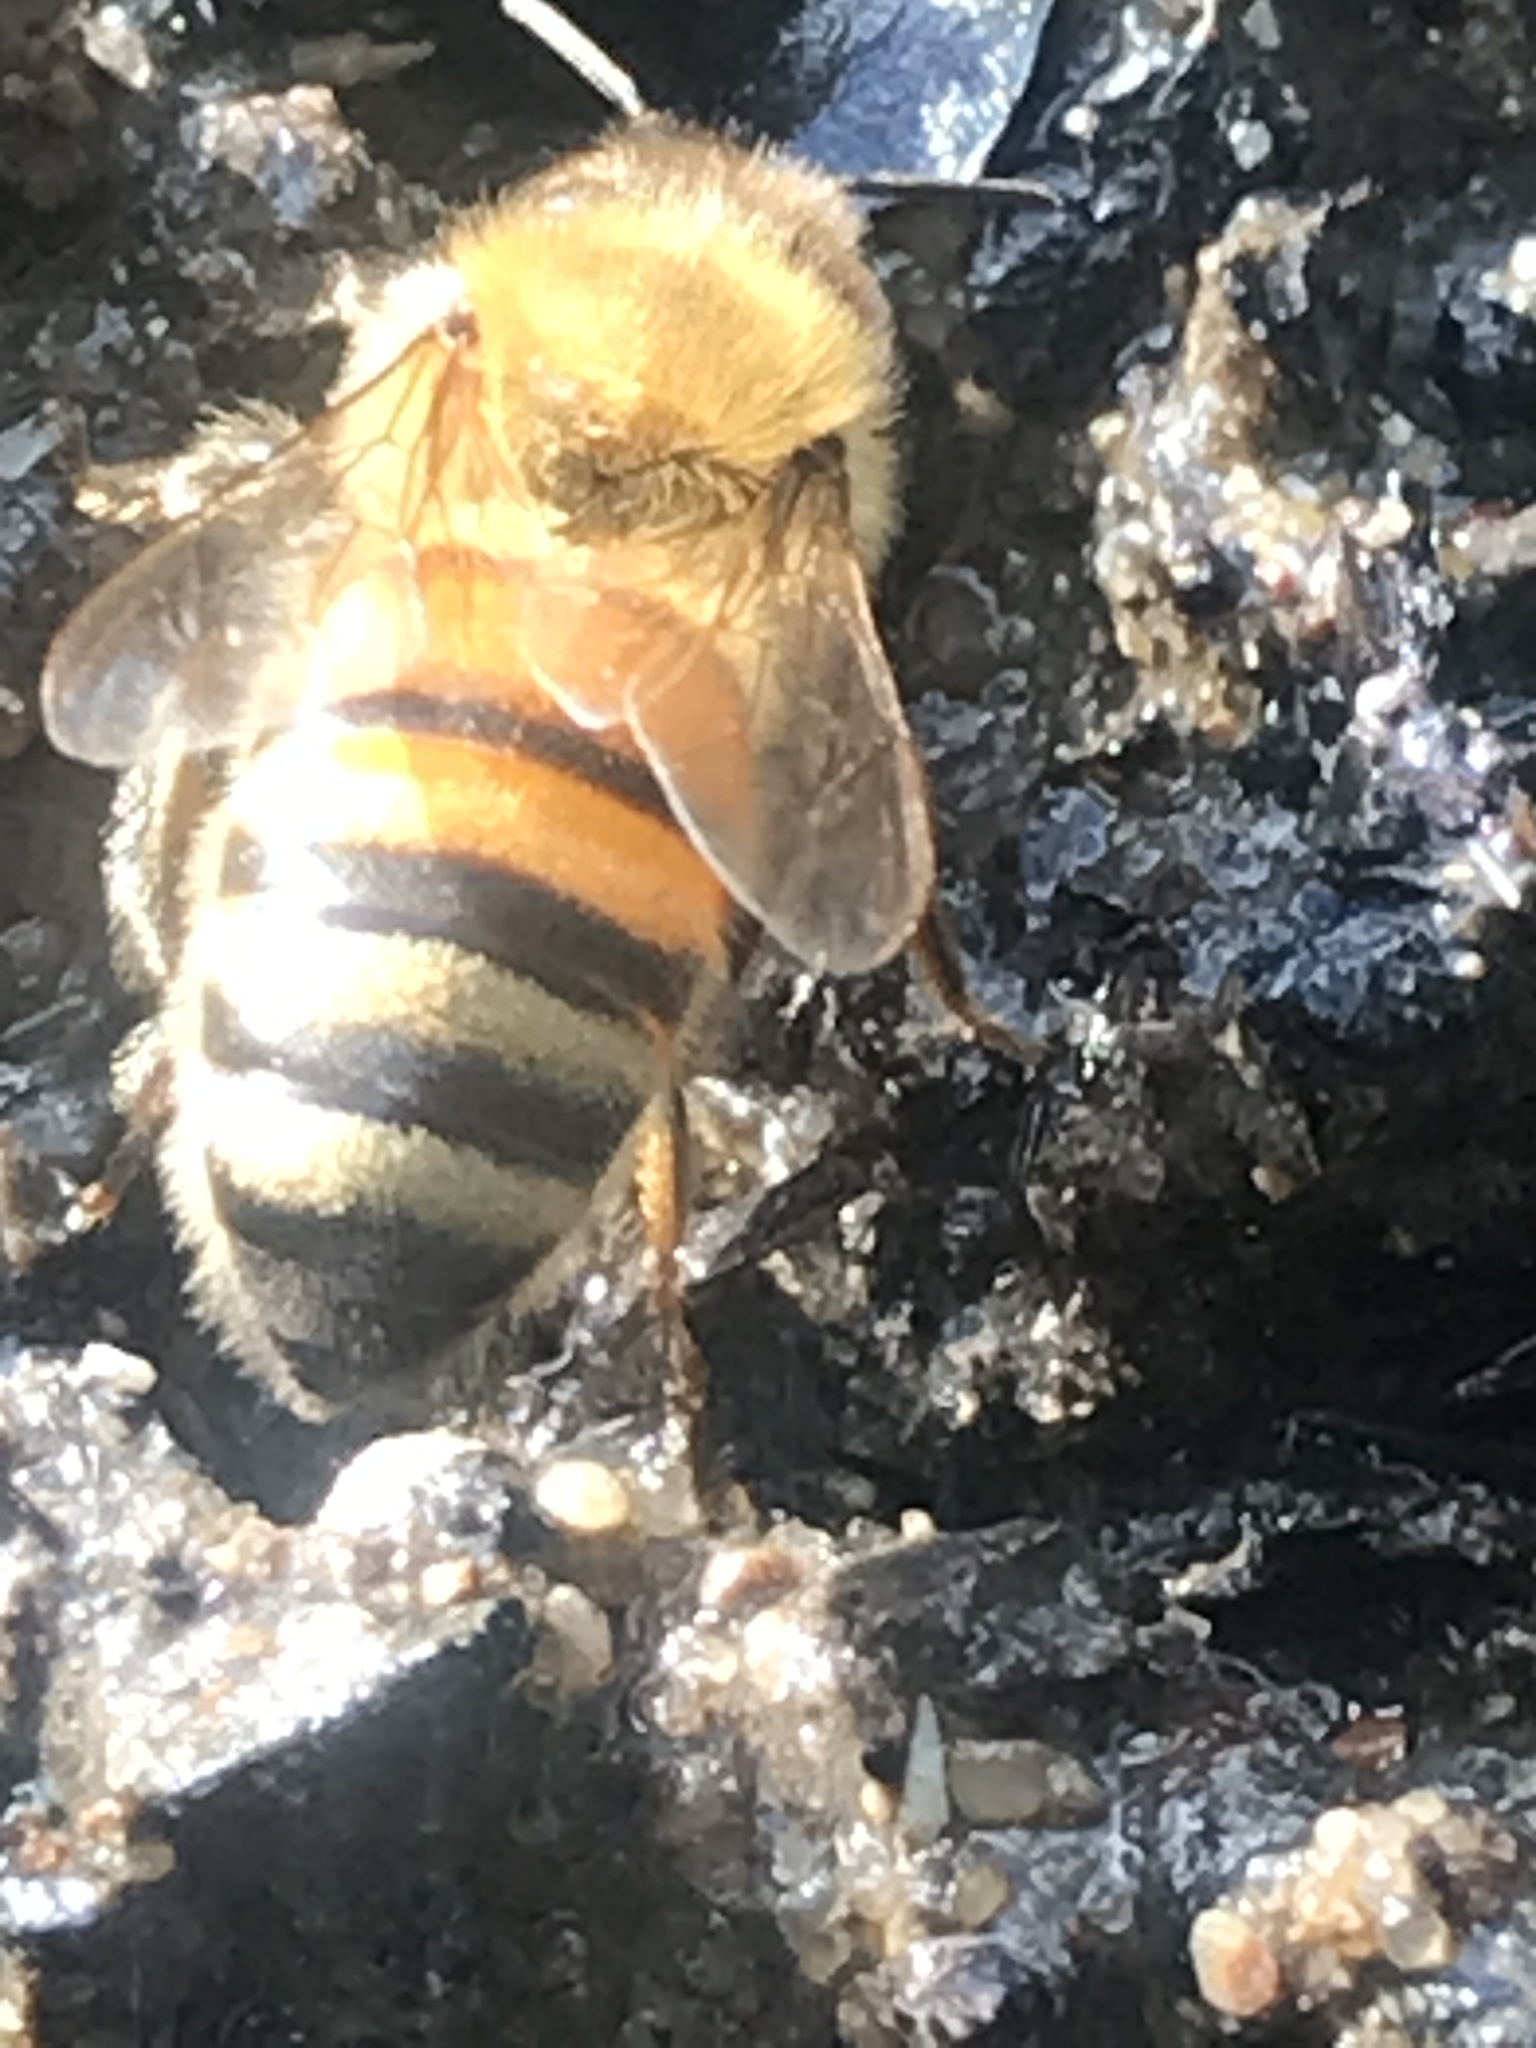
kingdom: Animalia
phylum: Arthropoda
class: Insecta
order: Hymenoptera
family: Apidae
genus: Apis
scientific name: Apis mellifera
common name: Honey bee
